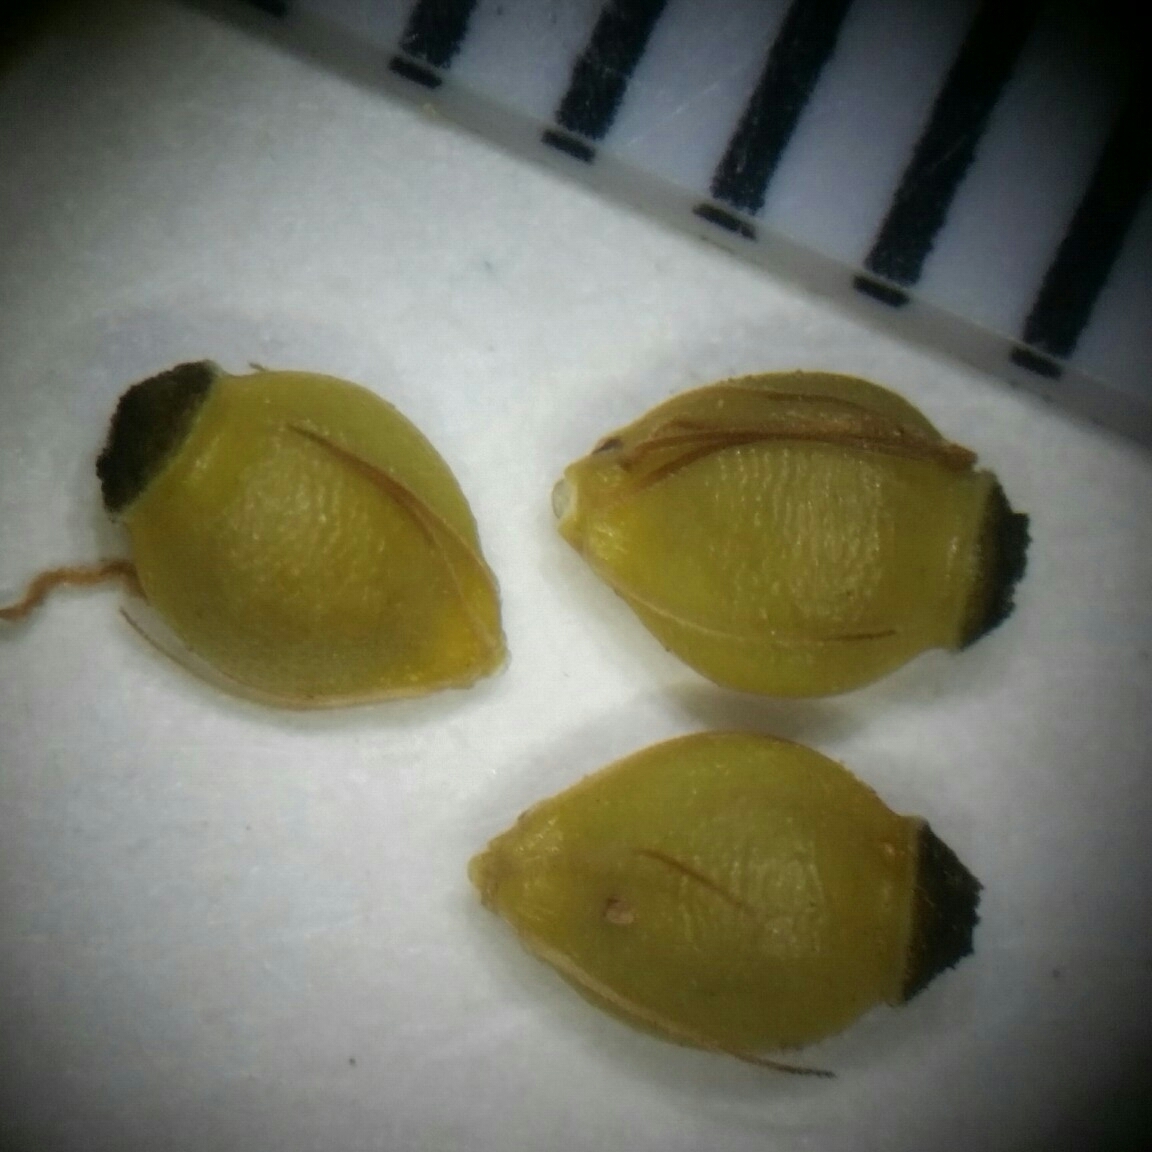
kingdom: Plantae
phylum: Tracheophyta
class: Liliopsida
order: Poales
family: Cyperaceae
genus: Rhynchospora
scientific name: Rhynchospora grayi
